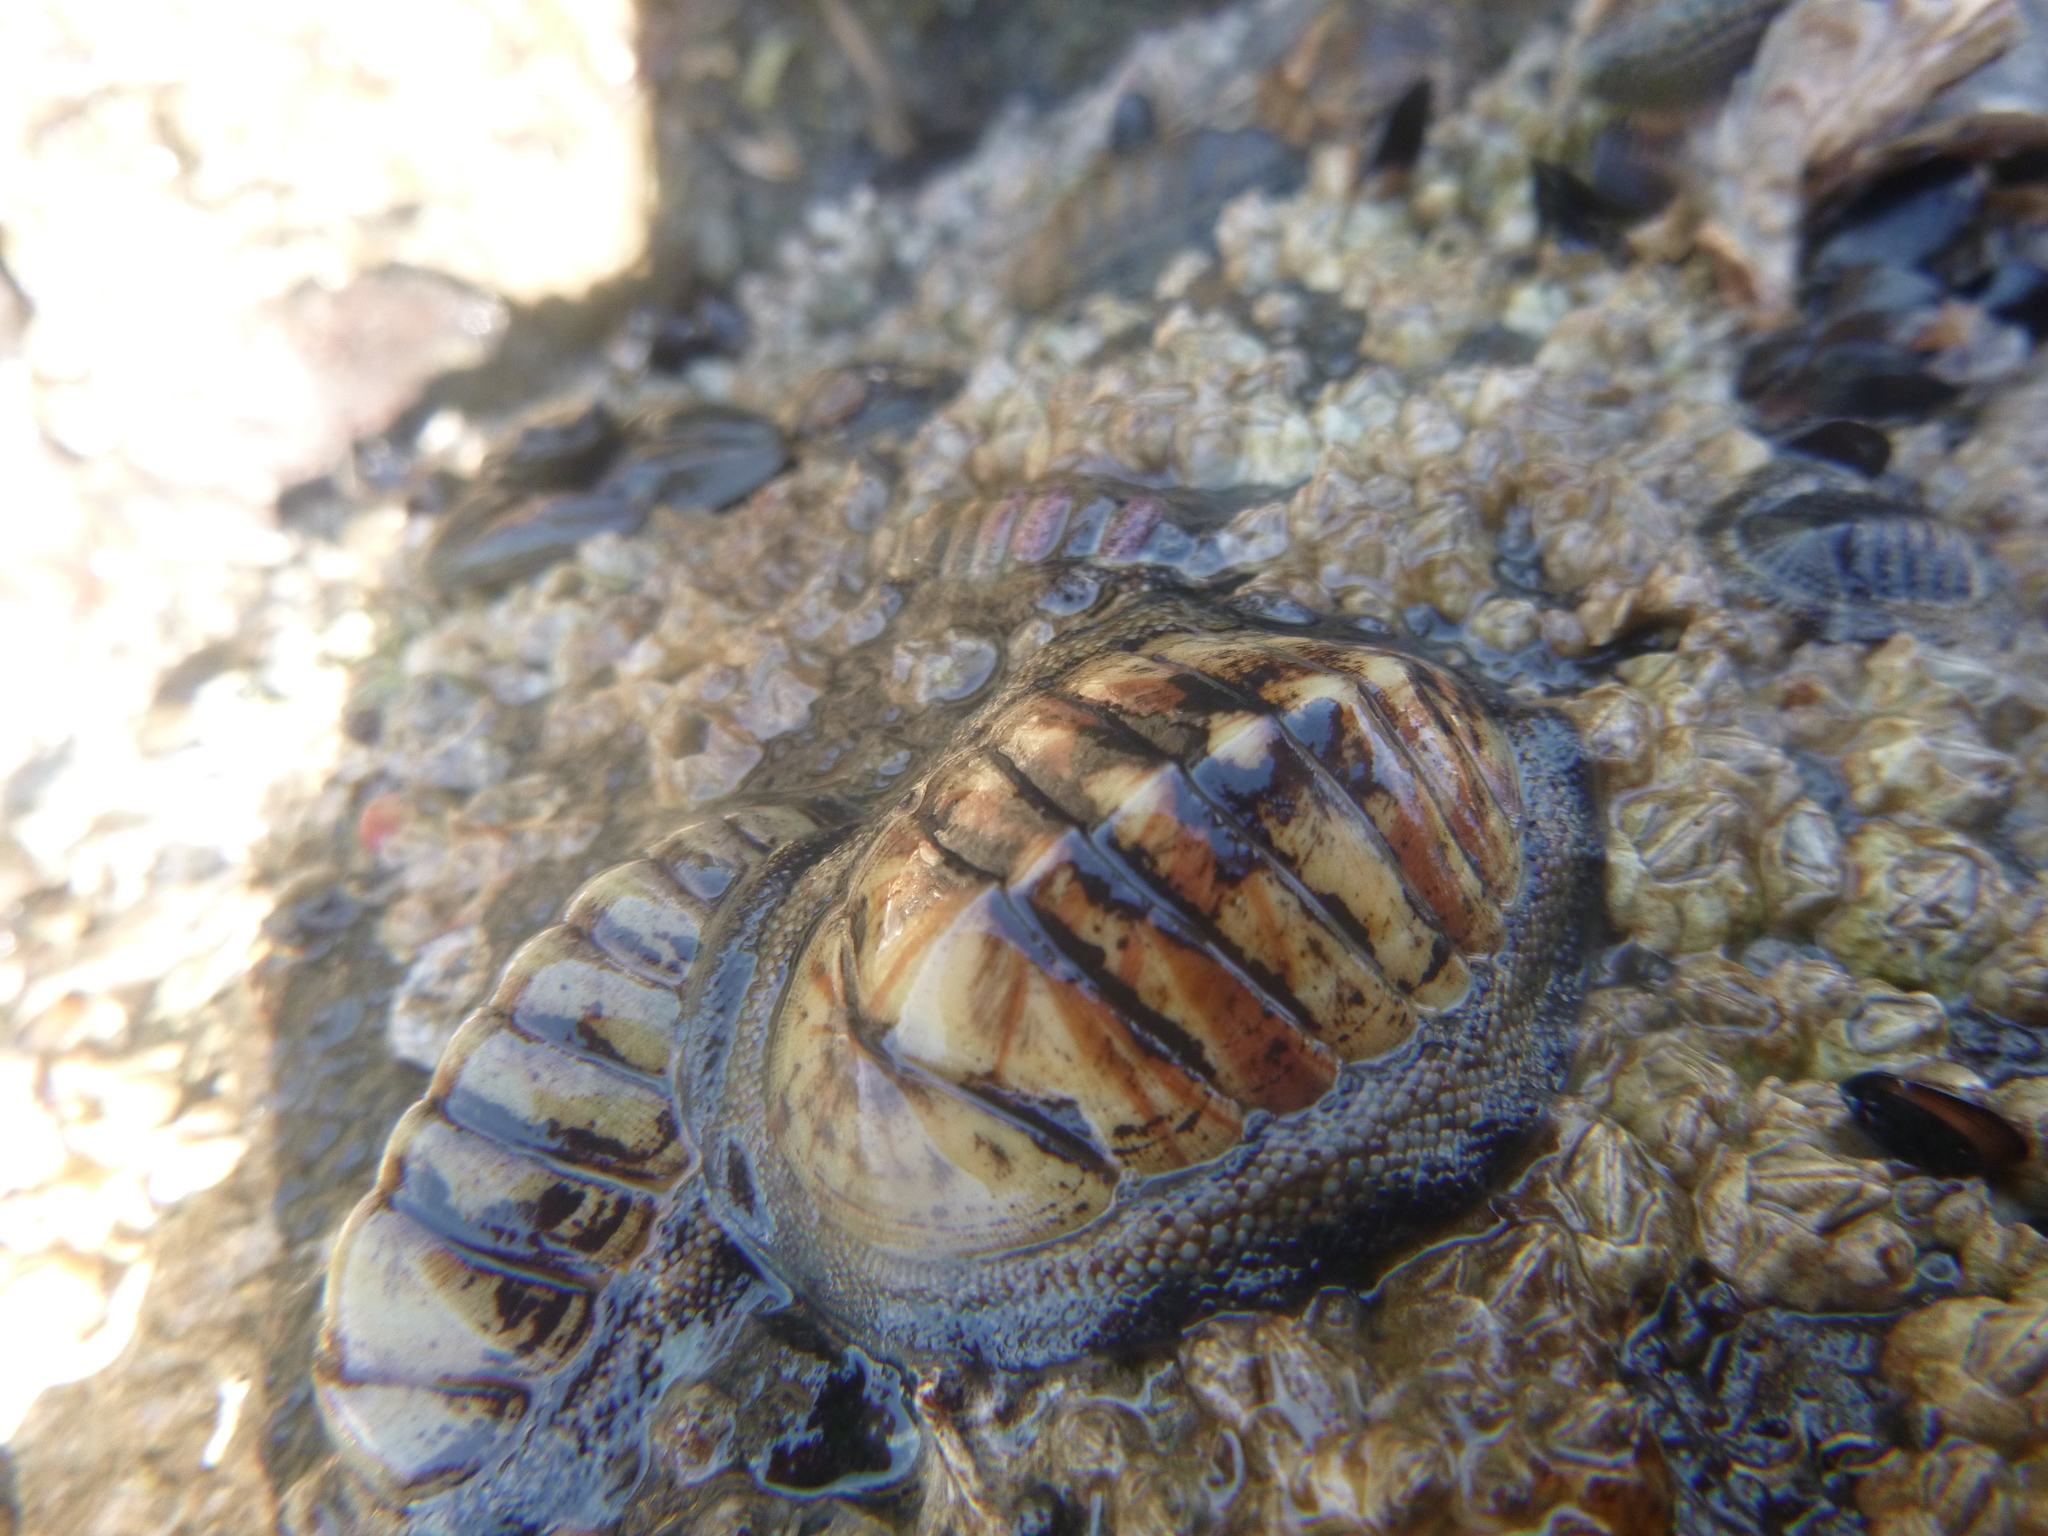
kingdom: Animalia
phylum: Mollusca
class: Polyplacophora
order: Chitonida
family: Chitonidae
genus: Chiton
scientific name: Chiton glaucus
